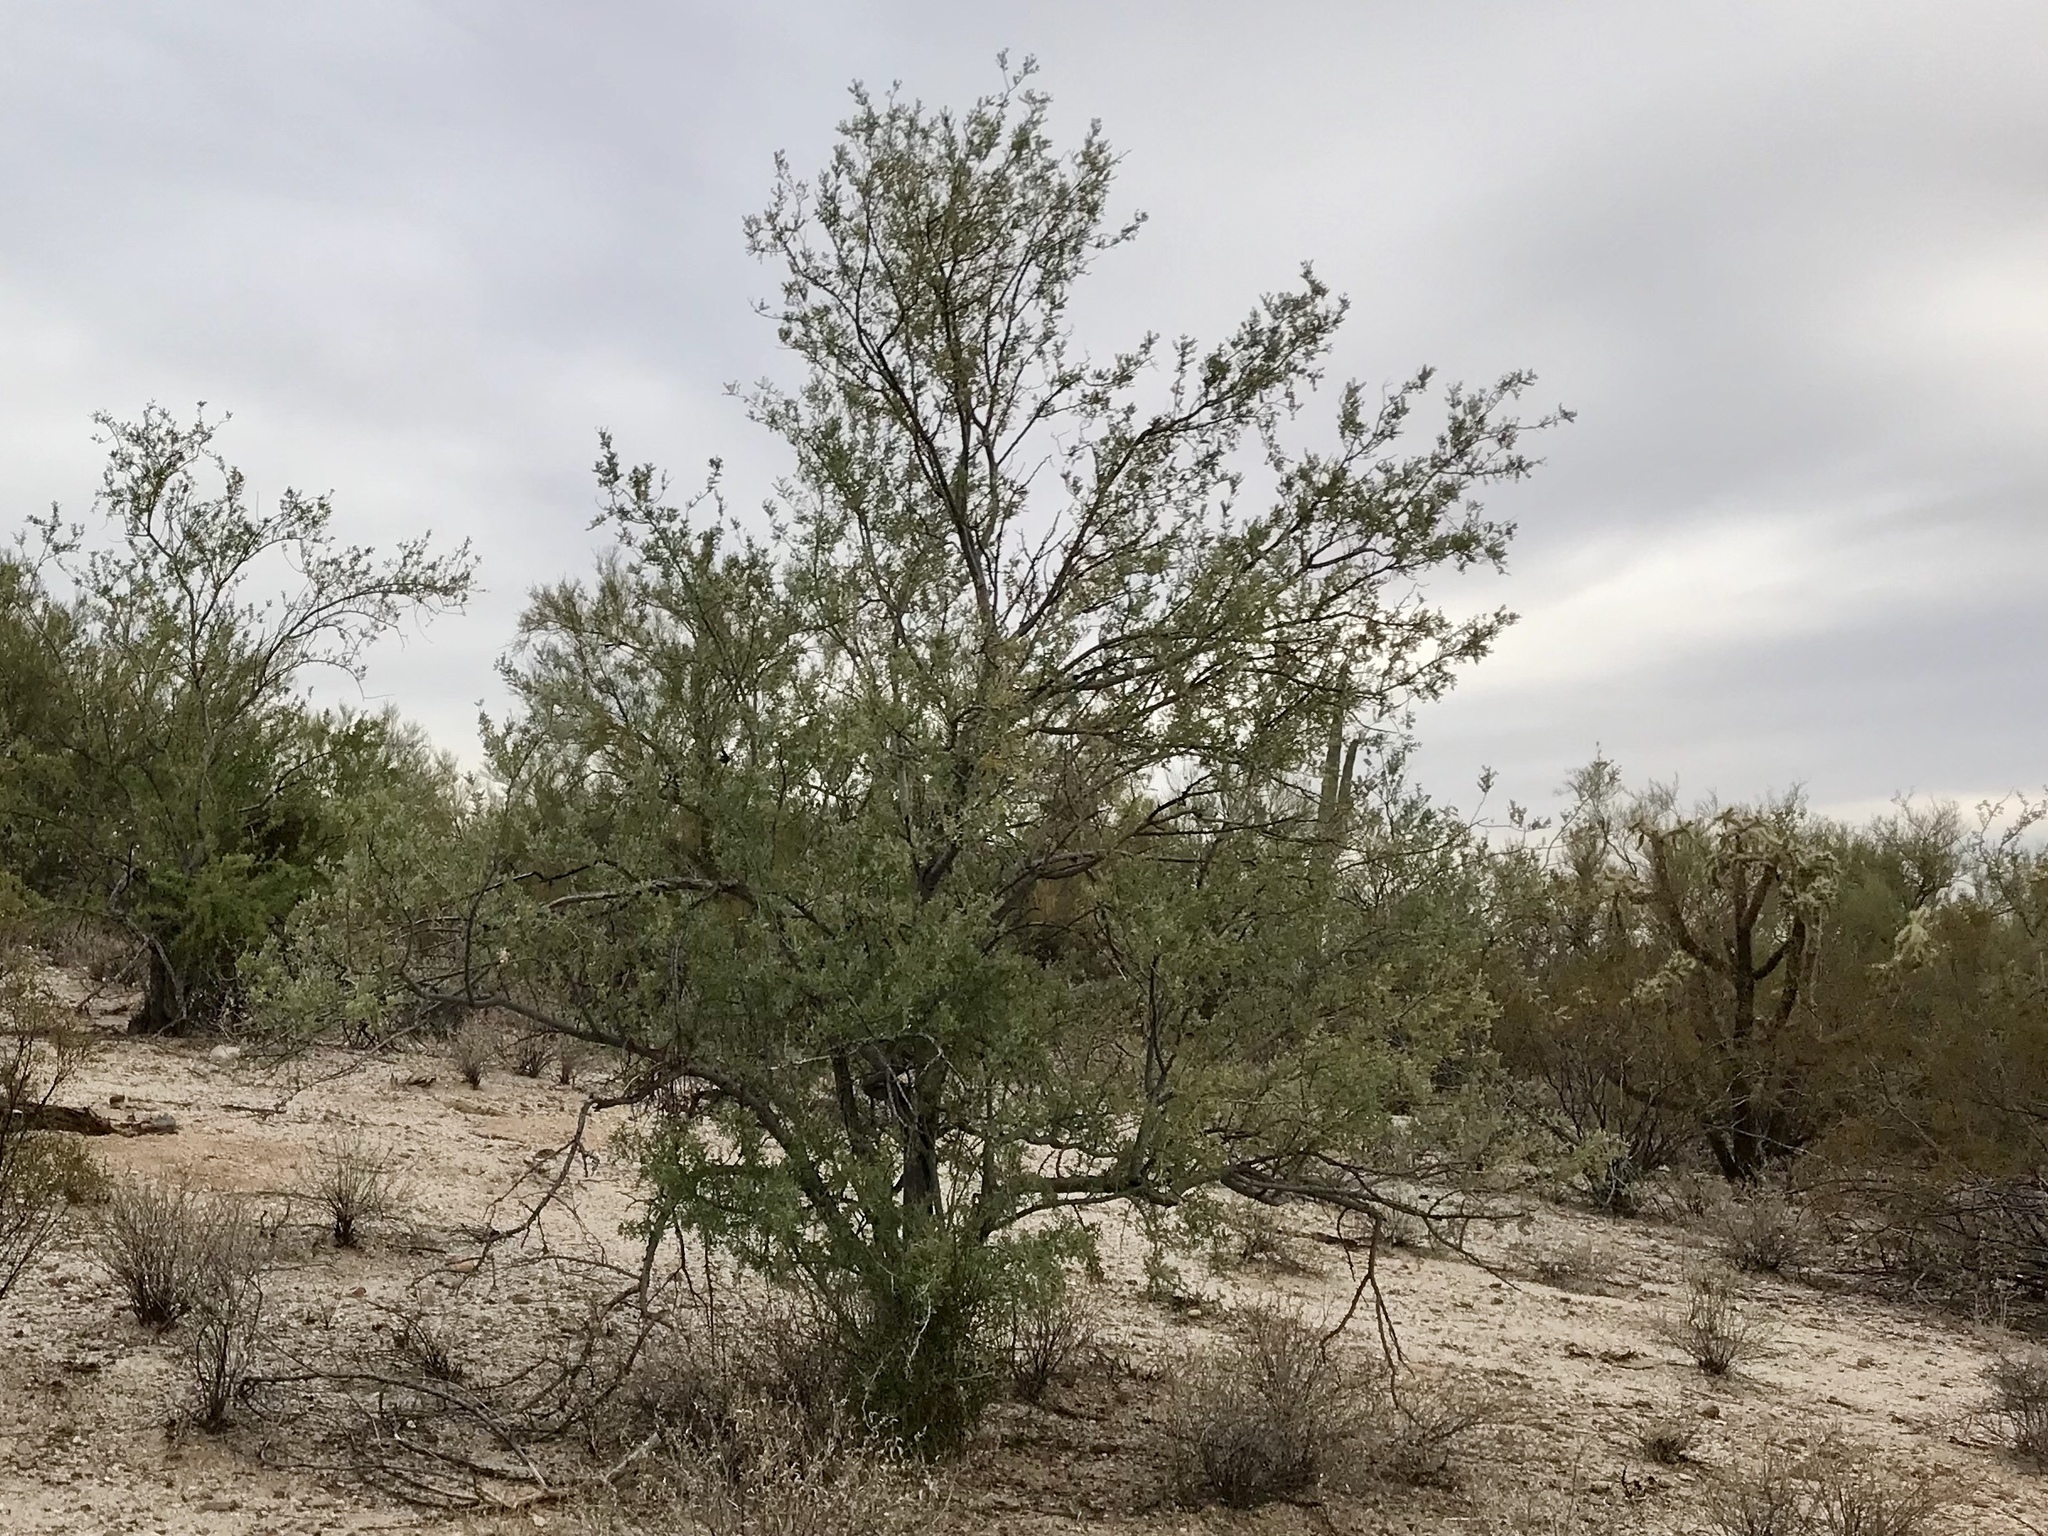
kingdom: Plantae
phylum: Tracheophyta
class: Magnoliopsida
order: Fabales
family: Fabaceae
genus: Olneya
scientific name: Olneya tesota
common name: Desert ironwood
